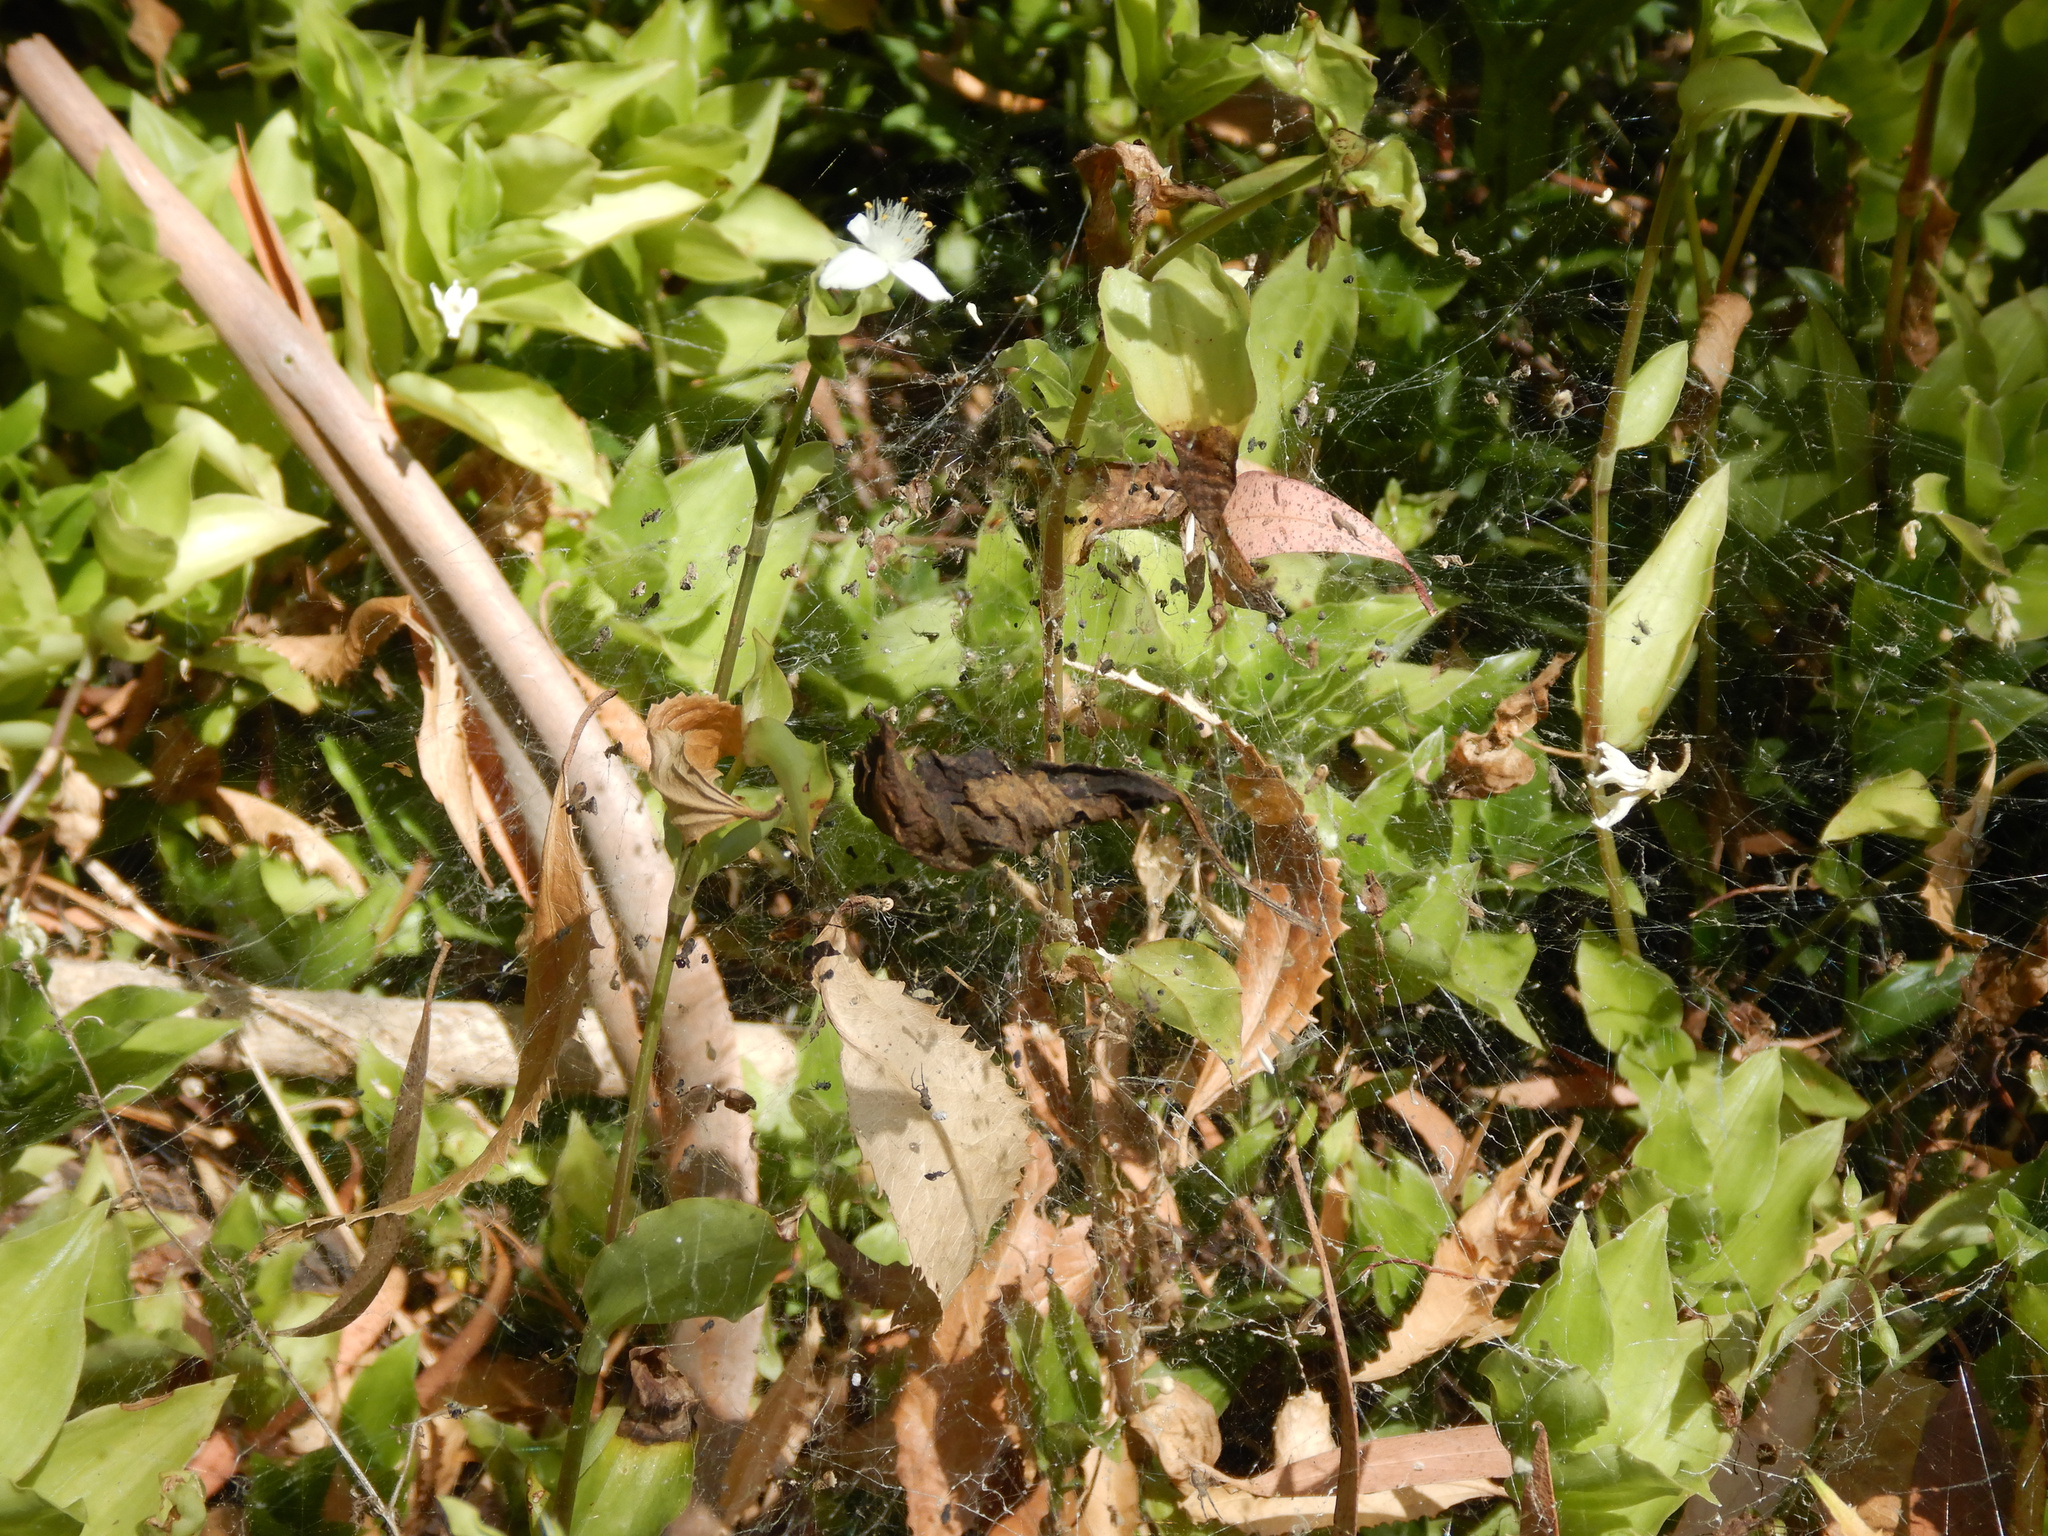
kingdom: Animalia
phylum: Arthropoda
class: Arachnida
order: Araneae
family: Uloboridae
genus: Philoponella
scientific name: Philoponella congregabilis
